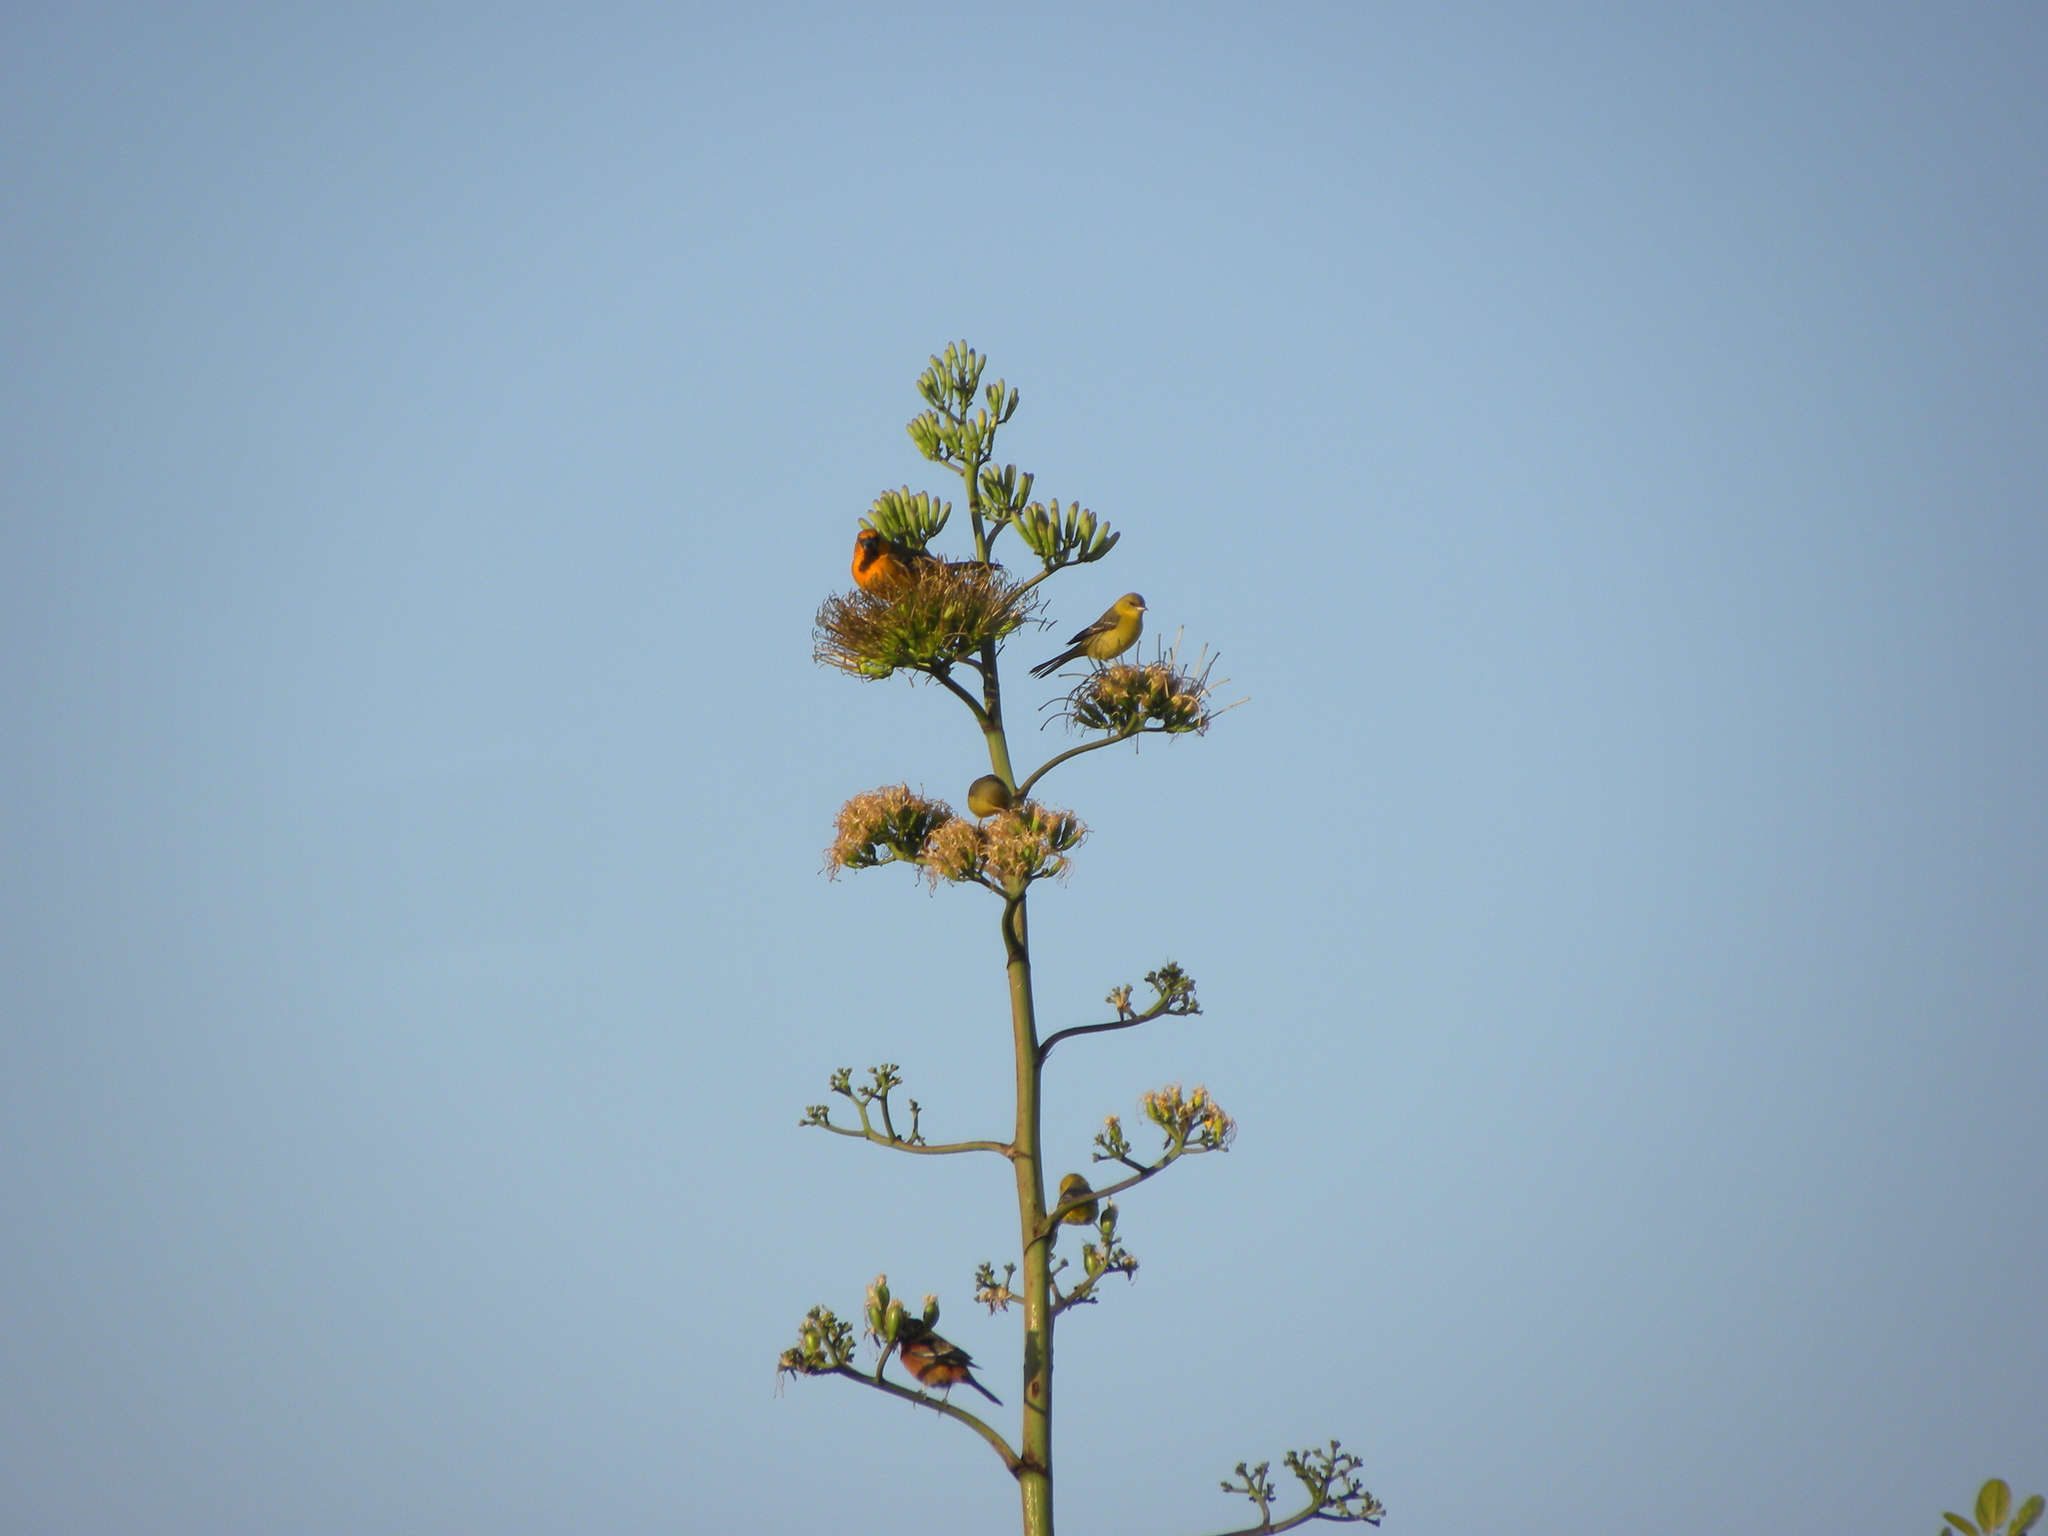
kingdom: Animalia
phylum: Chordata
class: Aves
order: Passeriformes
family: Icteridae
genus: Icterus
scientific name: Icterus gularis
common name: Altamira oriole
